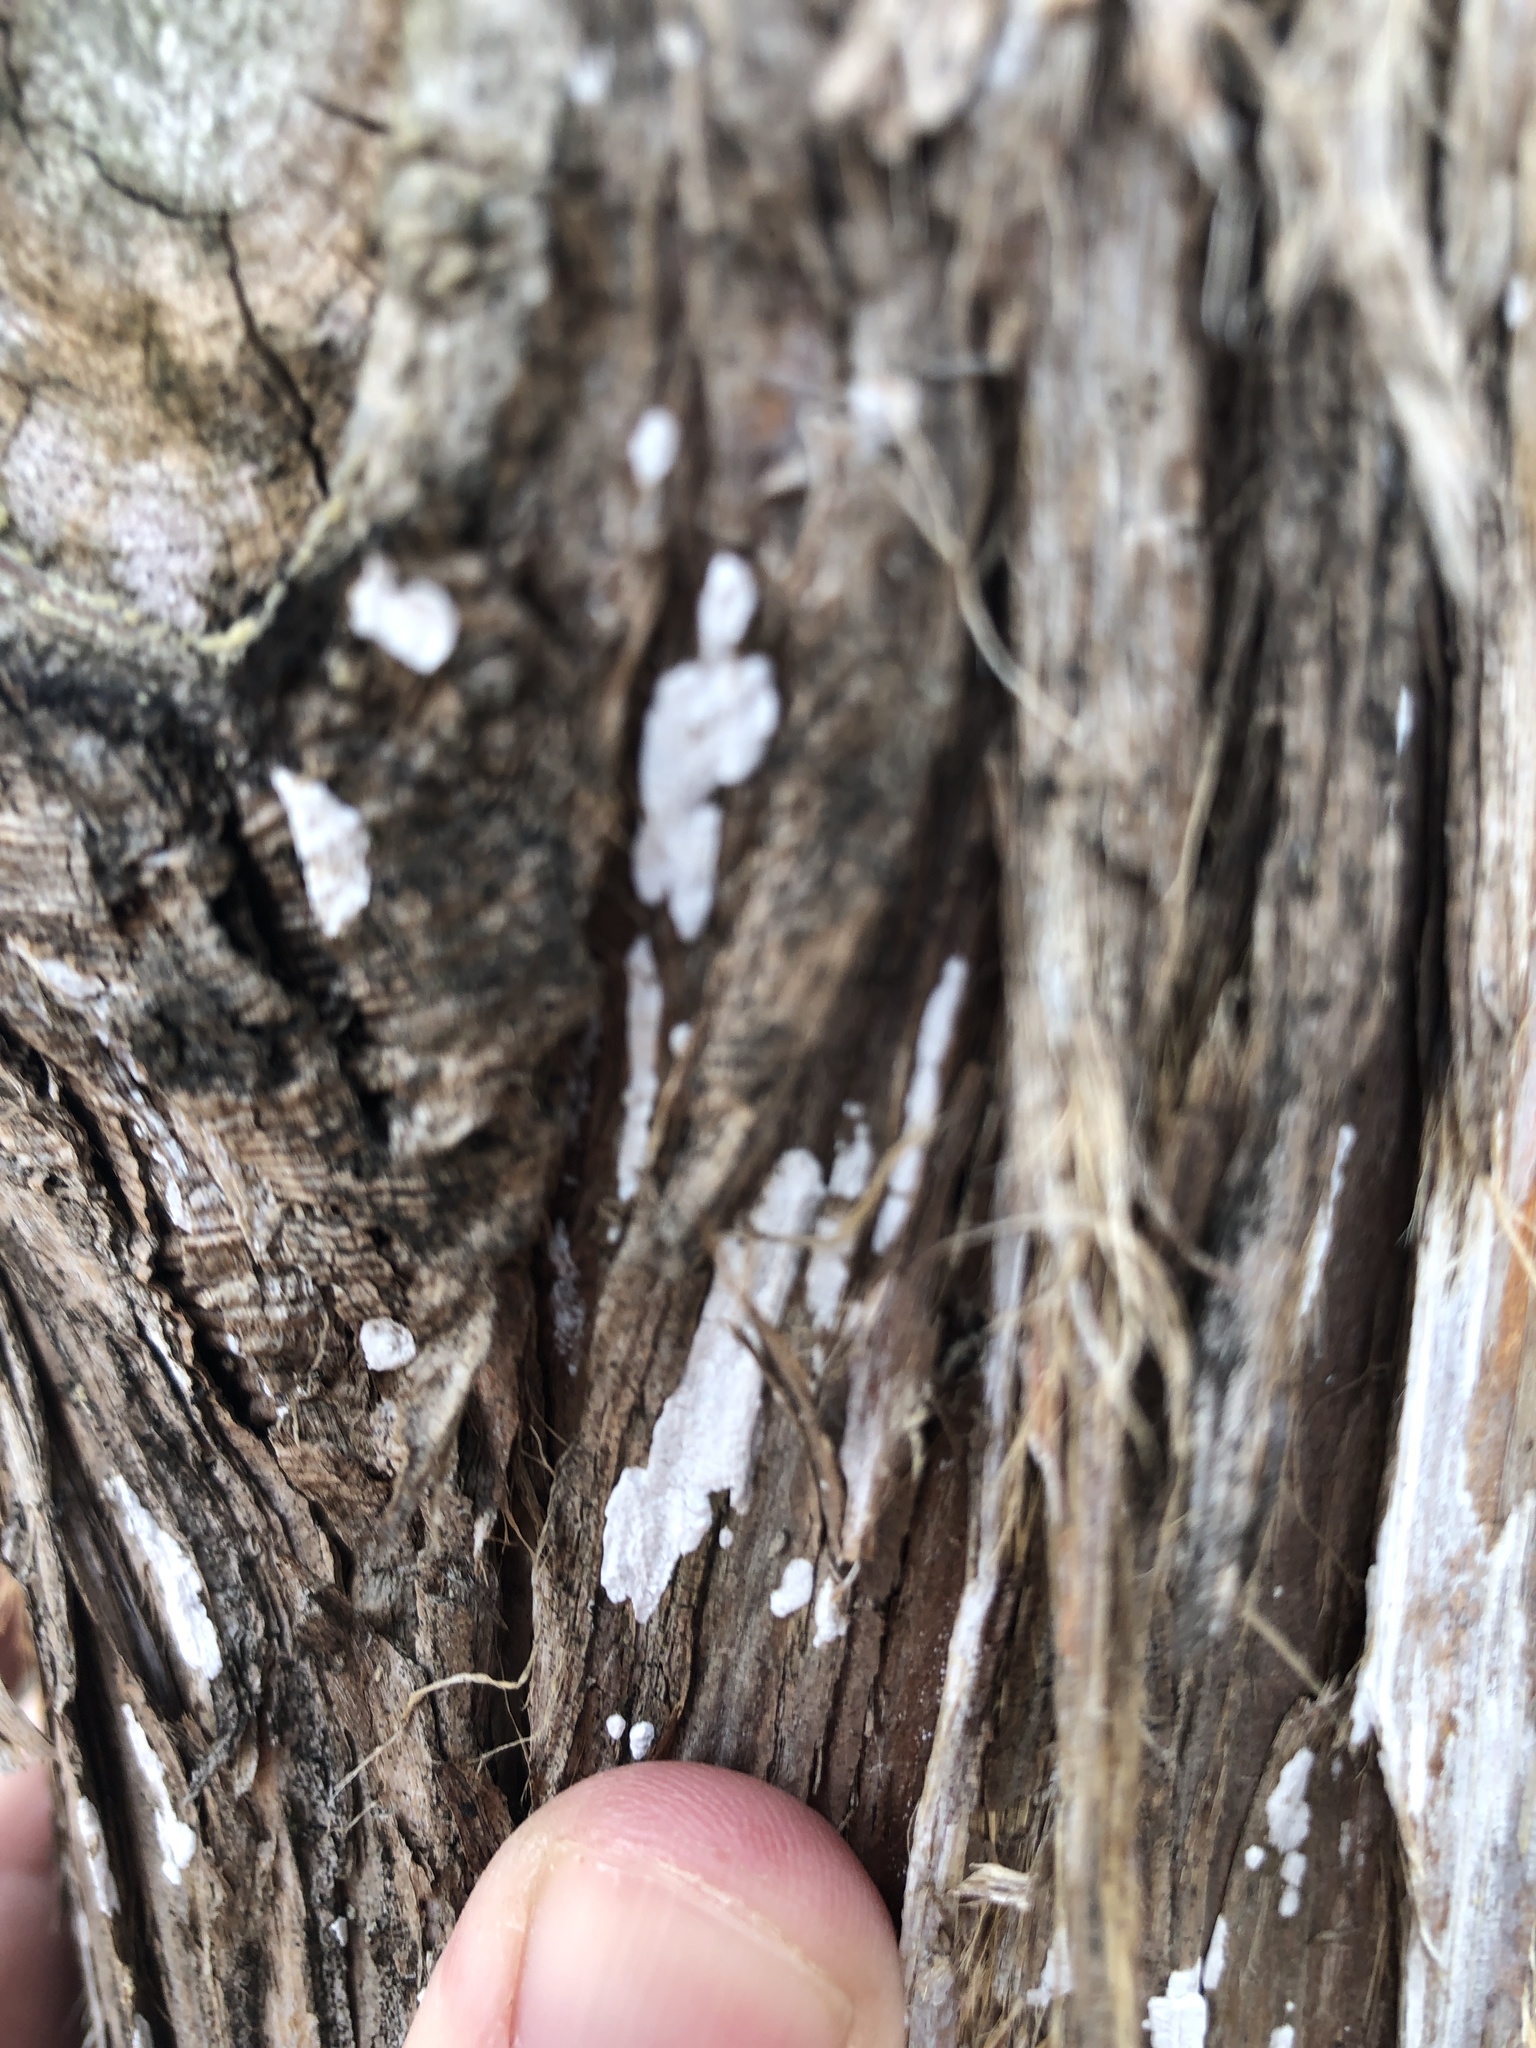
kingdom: Fungi
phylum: Basidiomycota
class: Agaricomycetes
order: Agaricales
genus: Dendrothele
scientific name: Dendrothele nivosa
